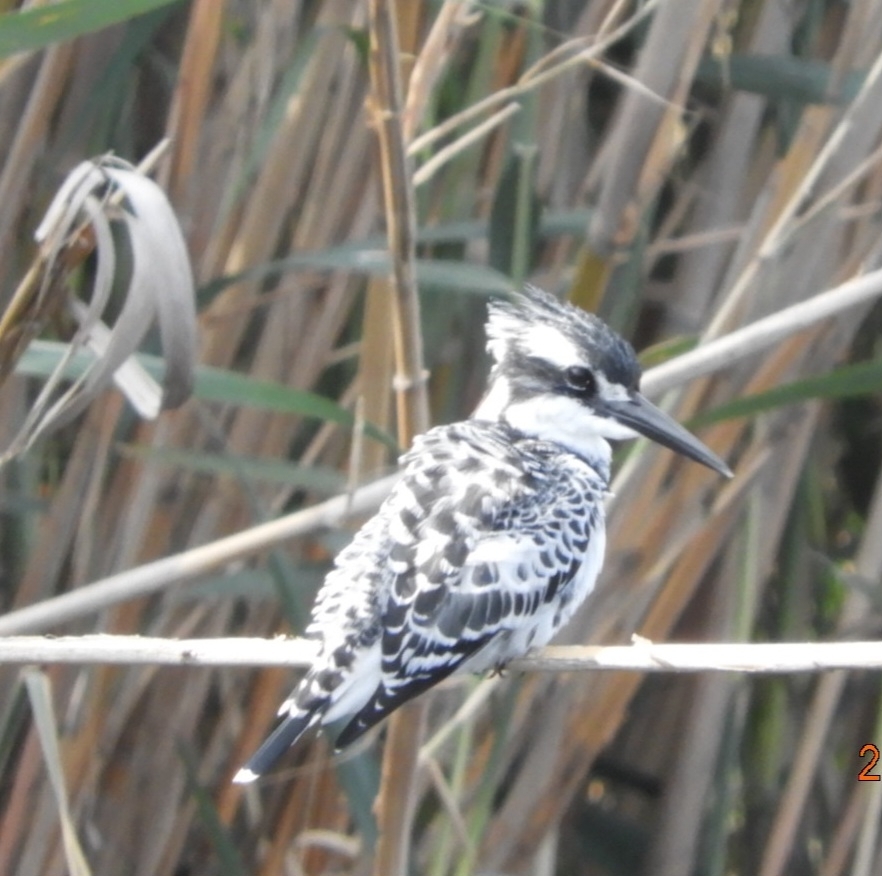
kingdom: Animalia
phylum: Chordata
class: Aves
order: Coraciiformes
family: Alcedinidae
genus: Ceryle
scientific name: Ceryle rudis
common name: Pied kingfisher
